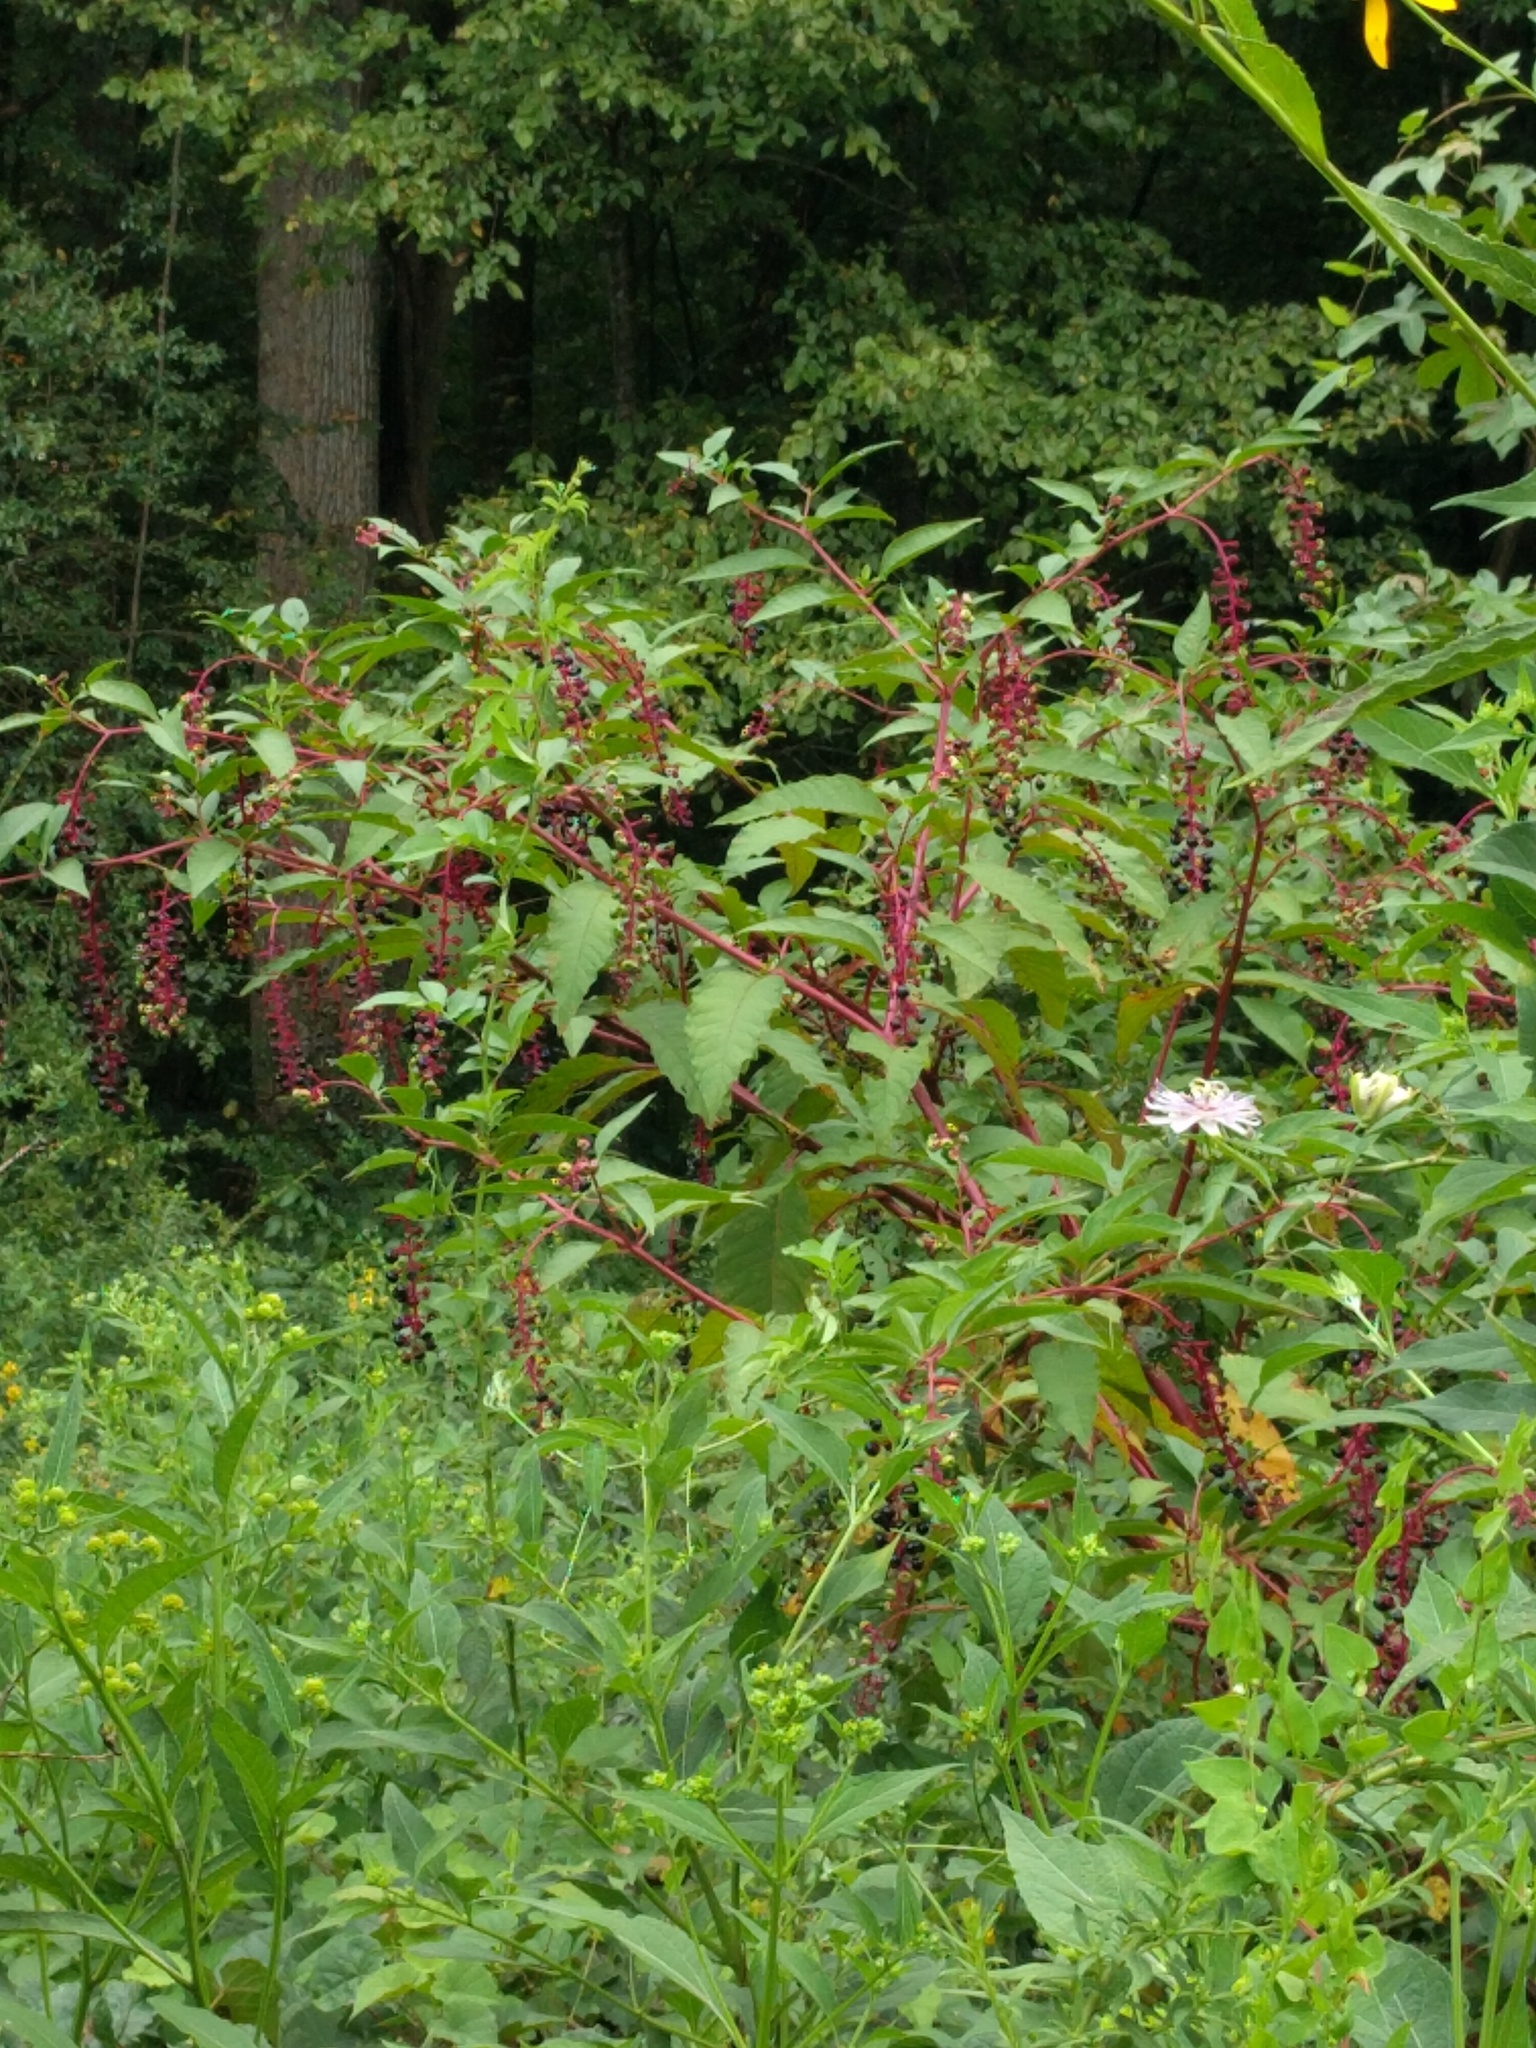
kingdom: Plantae
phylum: Tracheophyta
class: Magnoliopsida
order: Caryophyllales
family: Phytolaccaceae
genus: Phytolacca
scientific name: Phytolacca americana
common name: American pokeweed
